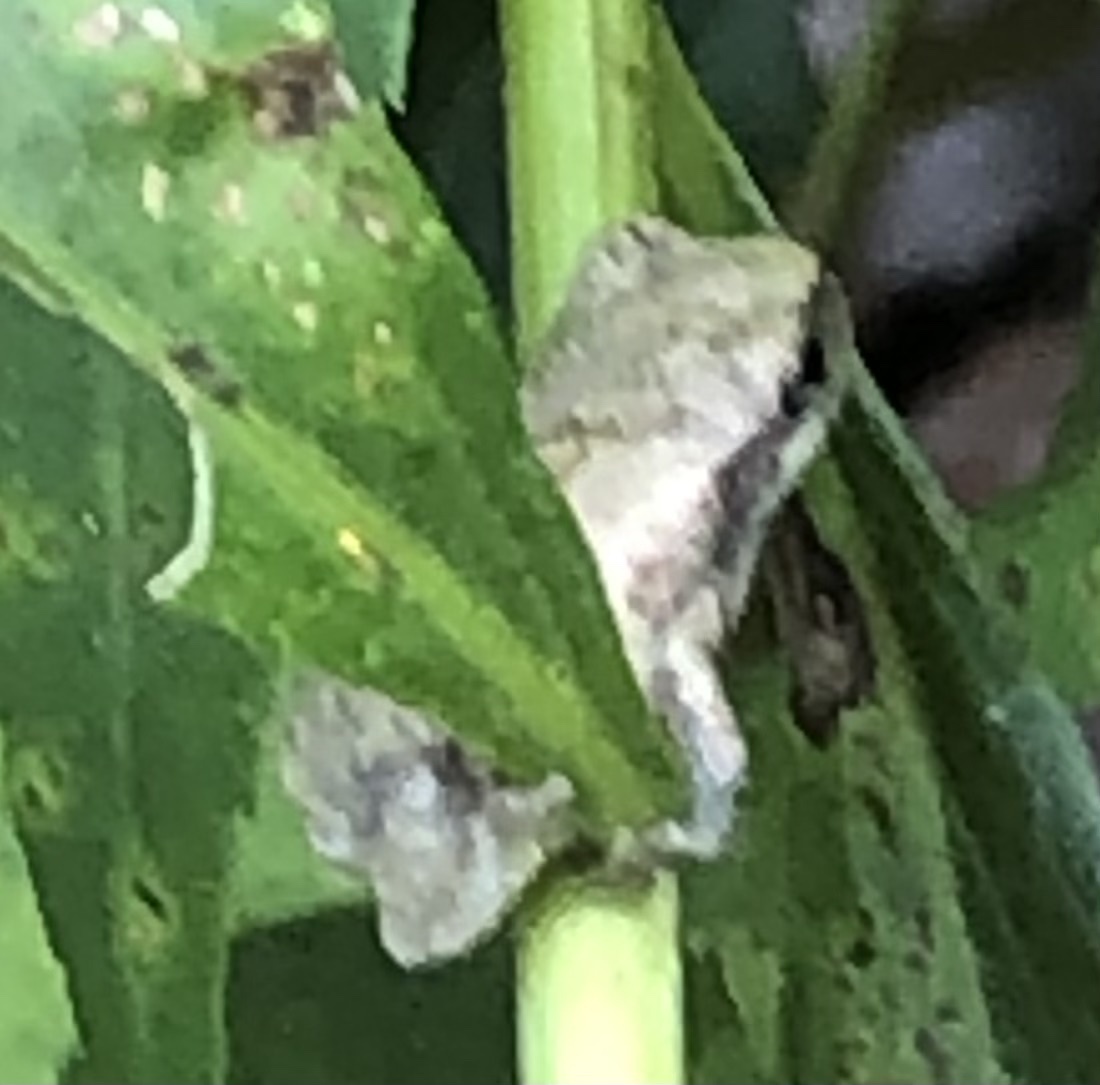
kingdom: Animalia
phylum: Chordata
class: Amphibia
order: Anura
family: Hylidae
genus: Dryophytes
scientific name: Dryophytes chrysoscelis
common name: Cope's gray treefrog
